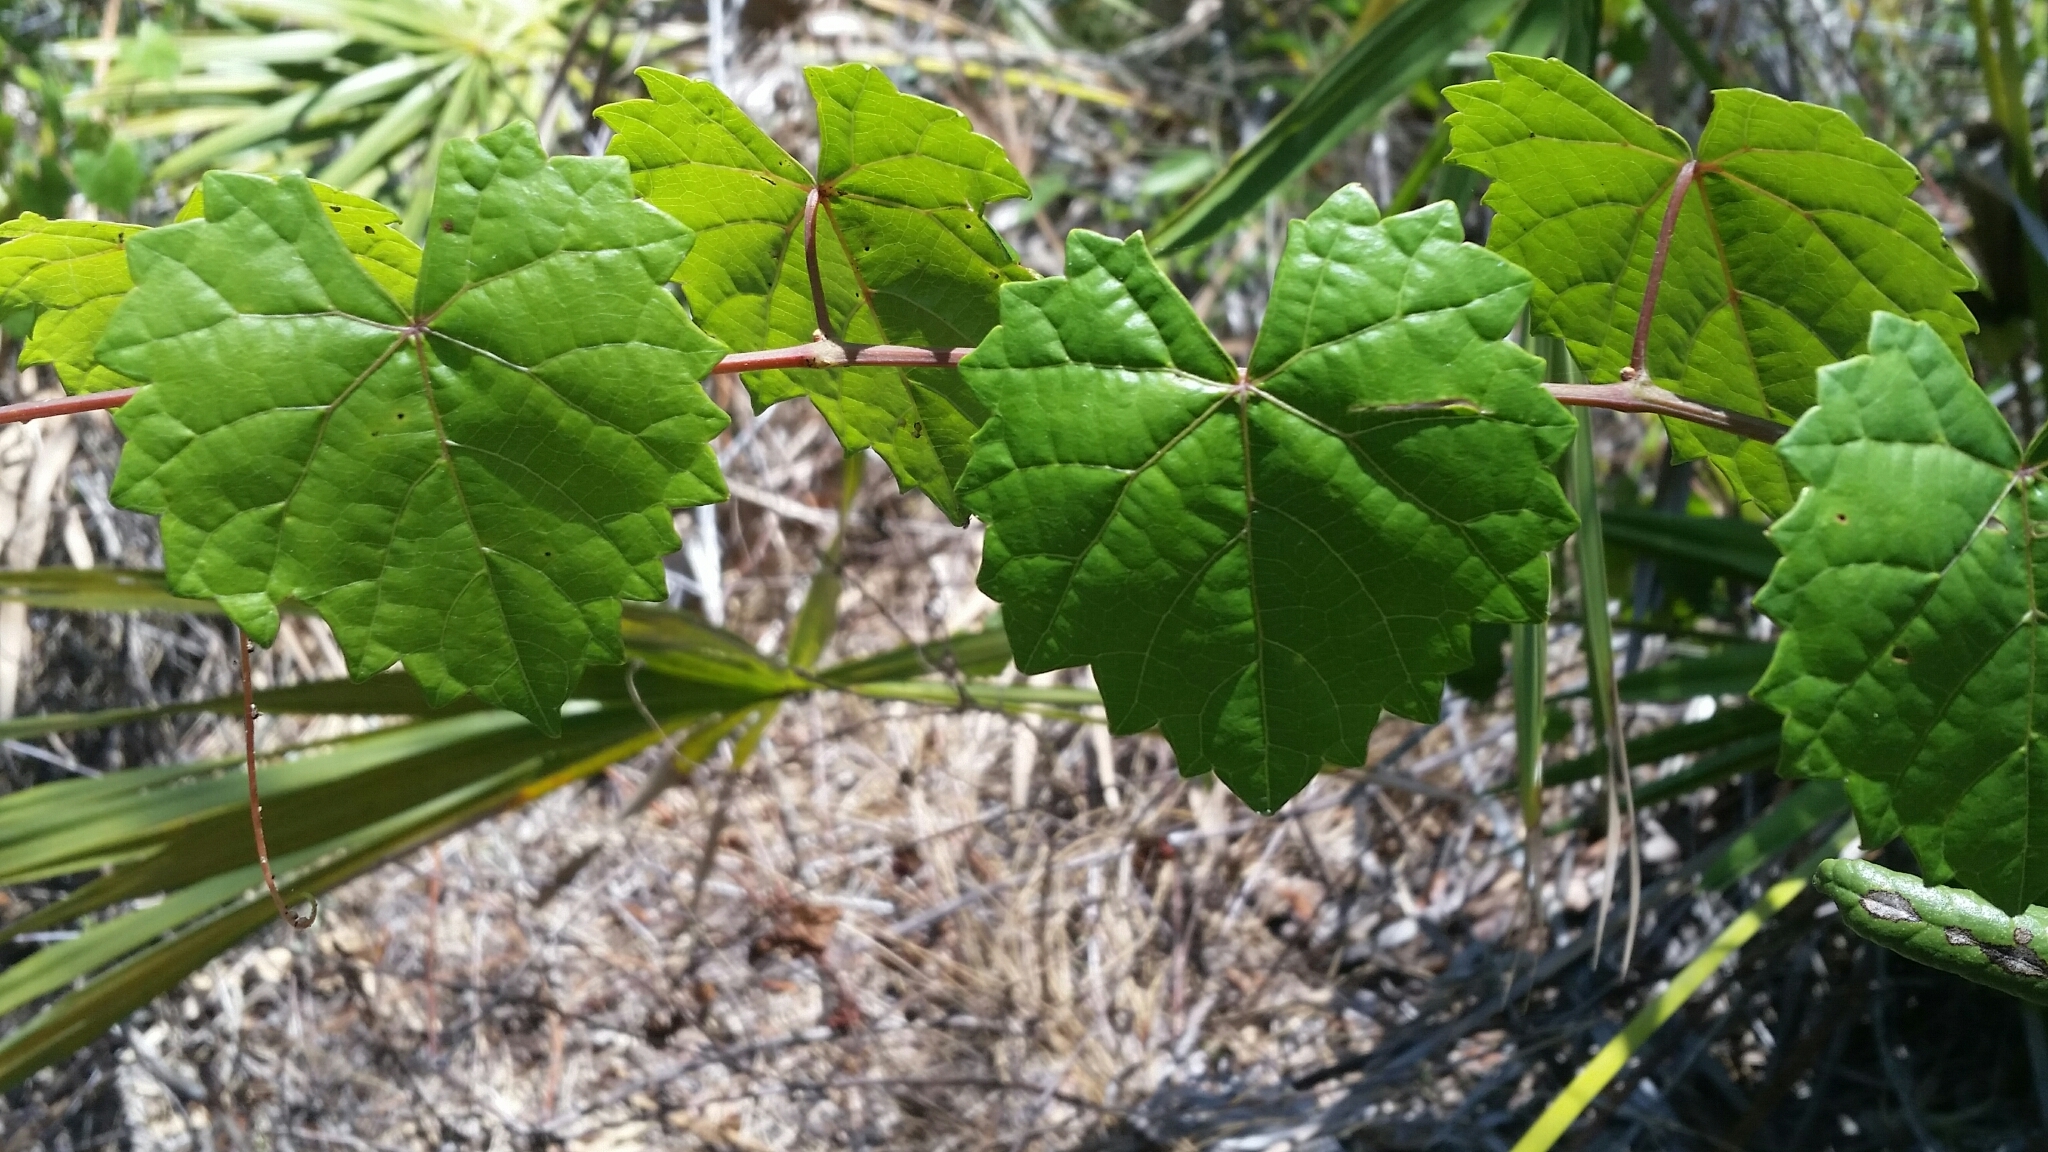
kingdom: Plantae
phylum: Tracheophyta
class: Magnoliopsida
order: Vitales
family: Vitaceae
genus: Vitis
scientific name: Vitis rotundifolia
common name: Muscadine grape
